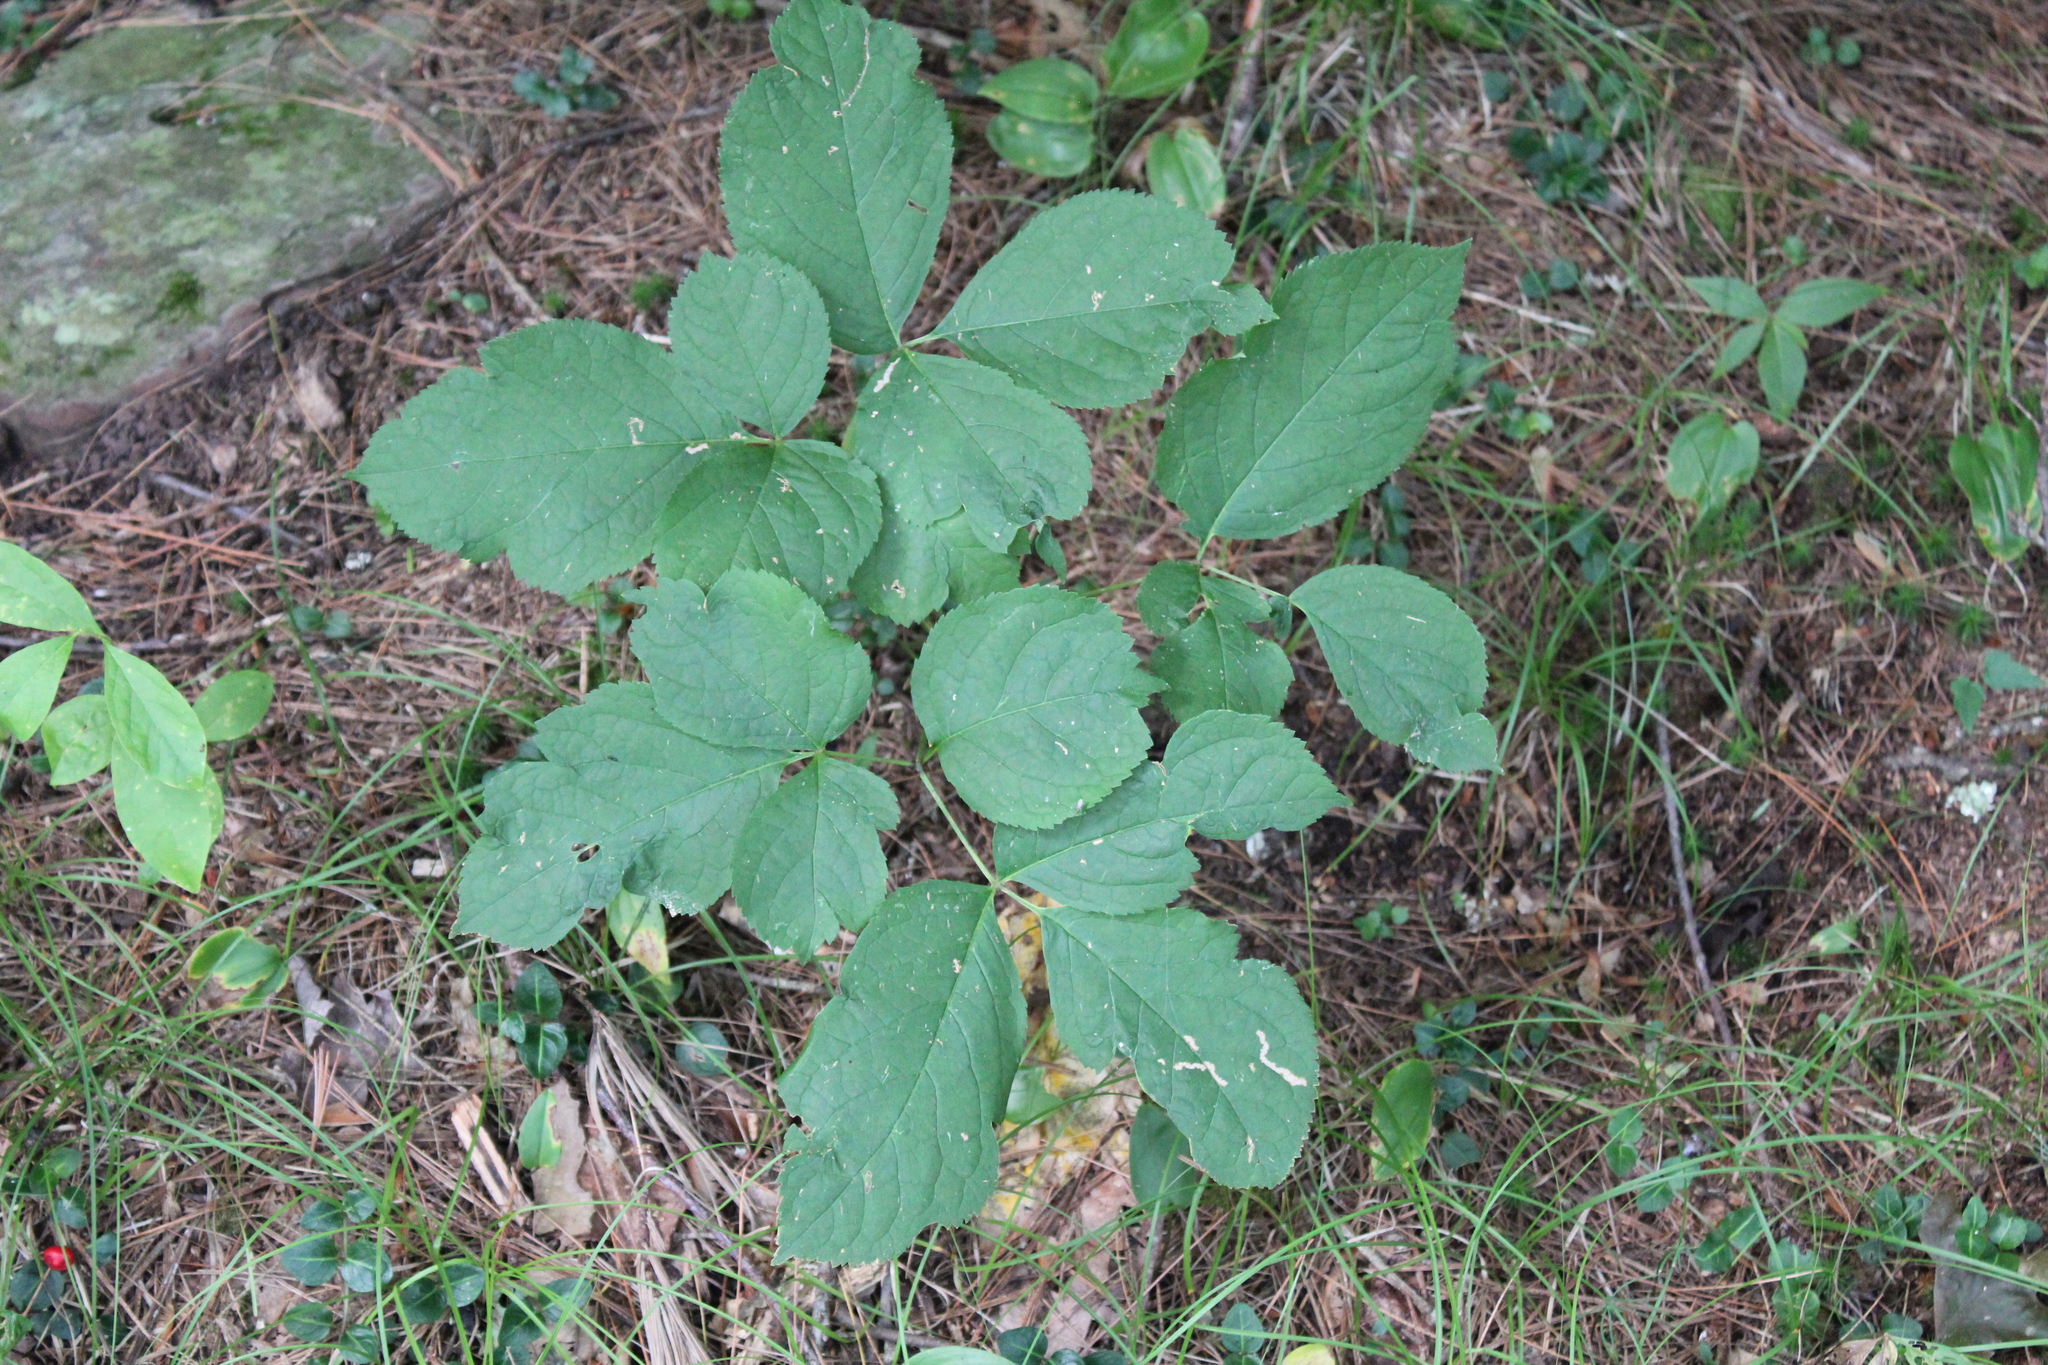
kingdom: Plantae
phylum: Tracheophyta
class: Magnoliopsida
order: Apiales
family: Araliaceae
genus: Aralia
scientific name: Aralia nudicaulis
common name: Wild sarsaparilla
